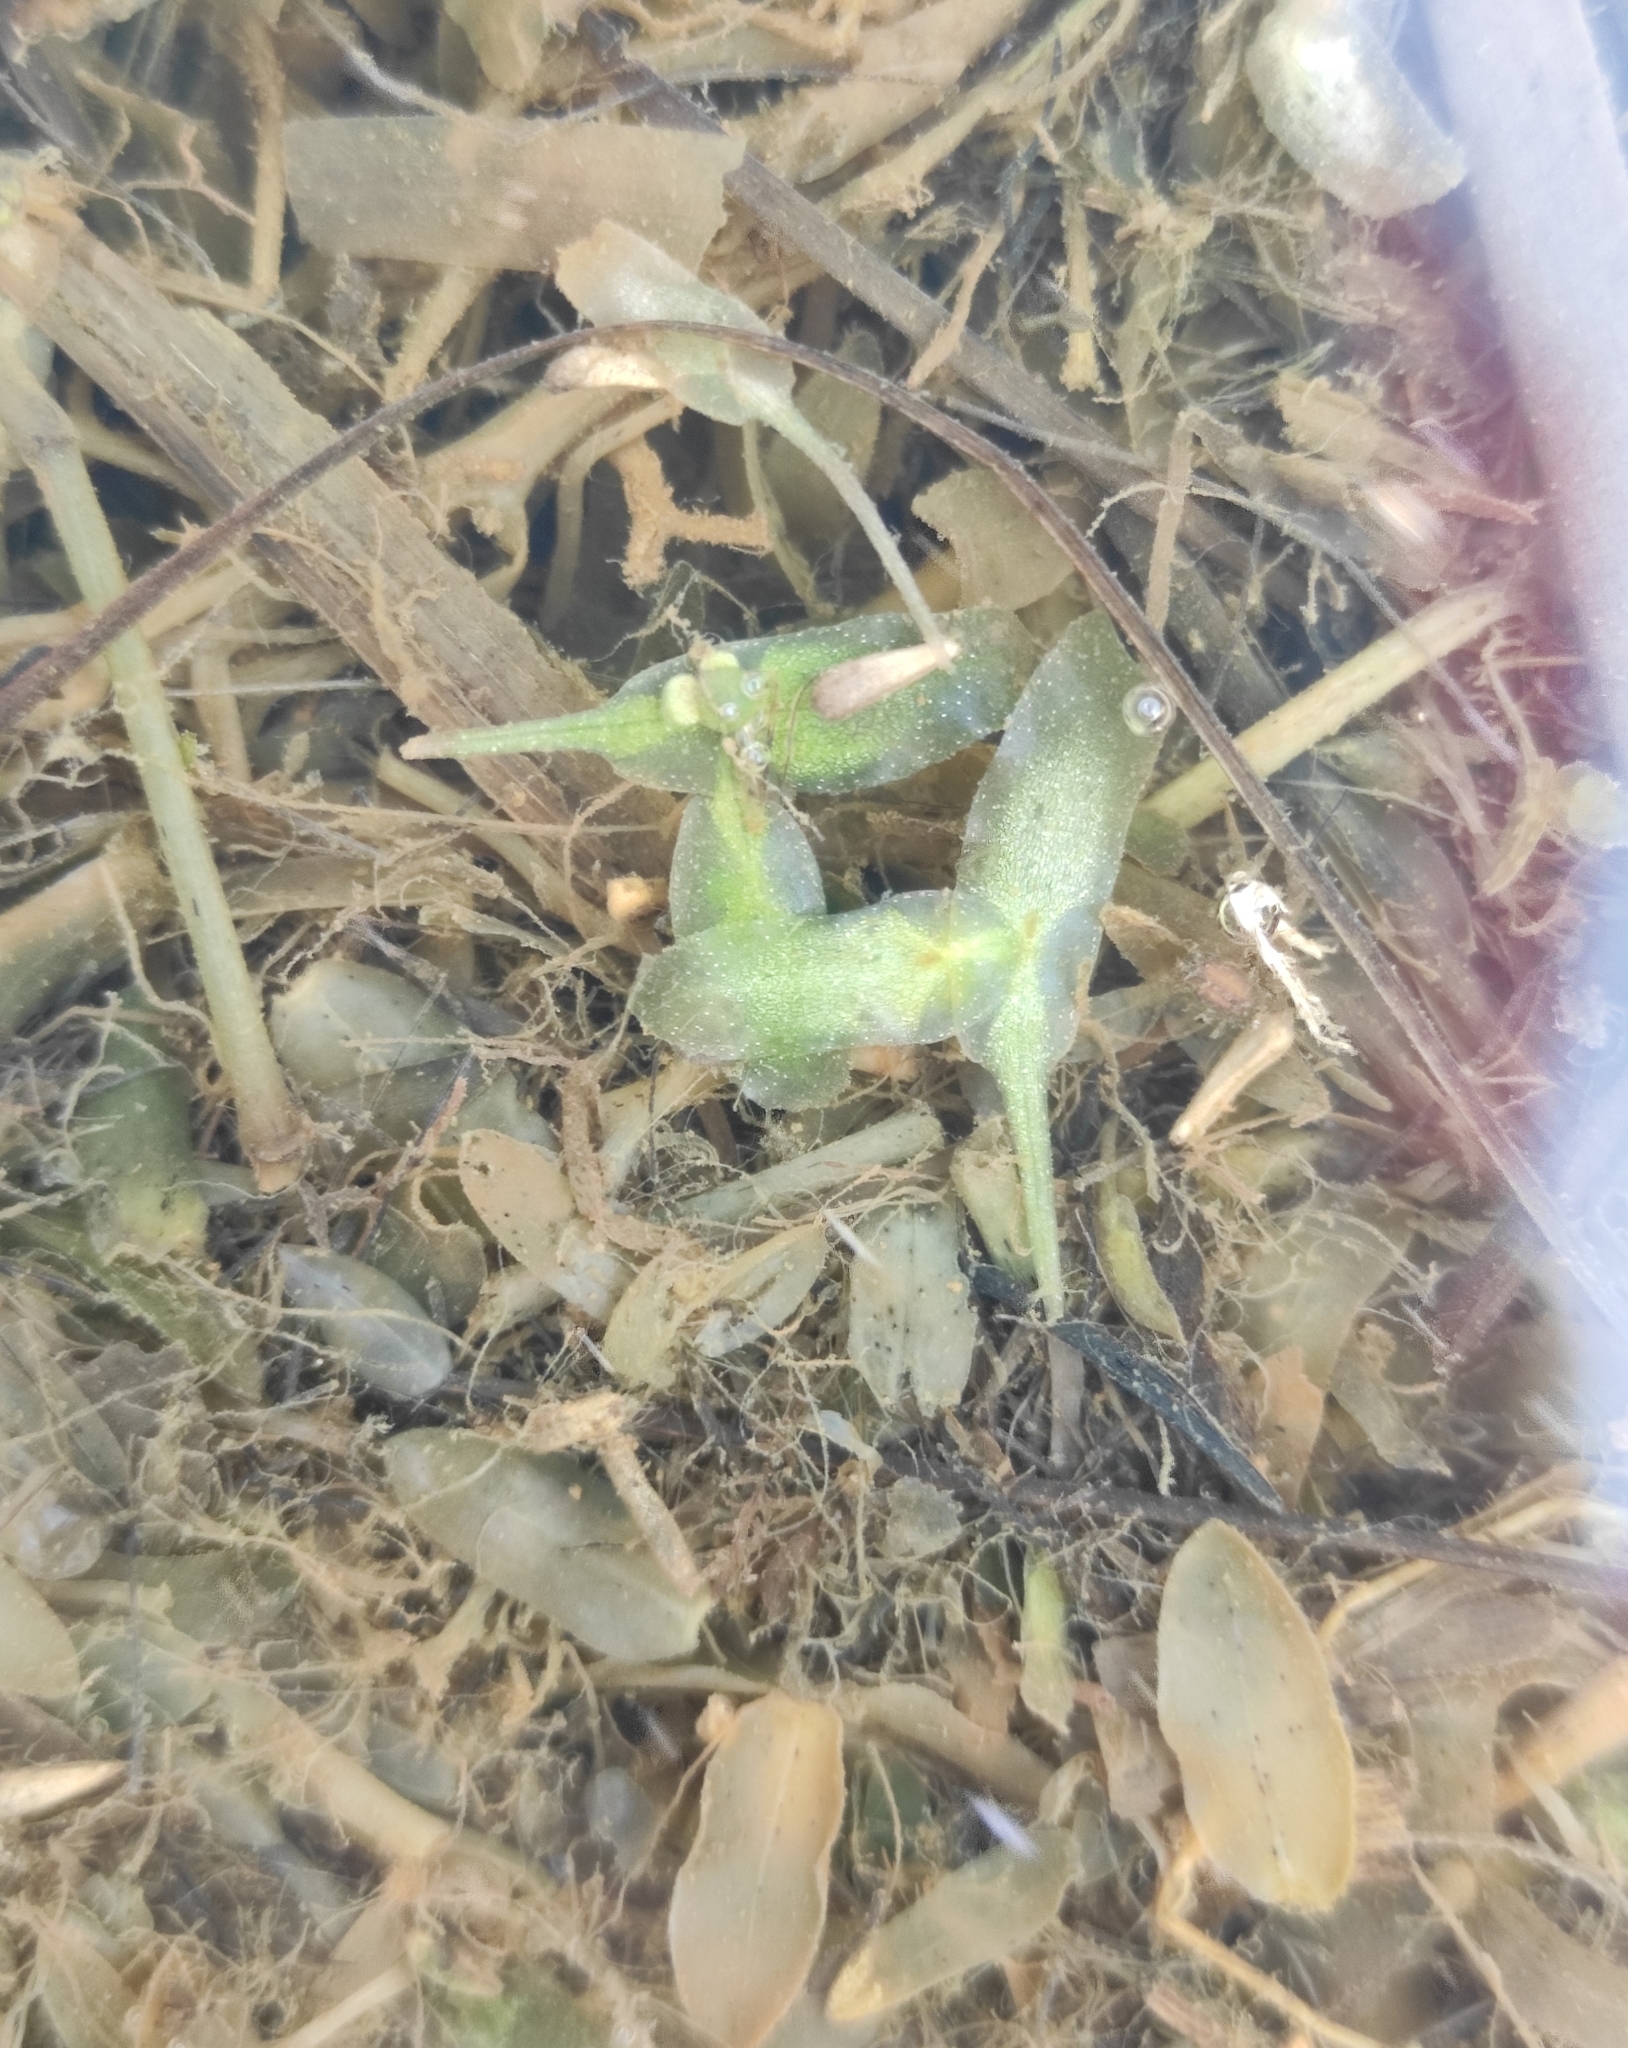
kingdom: Plantae
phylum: Tracheophyta
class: Liliopsida
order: Alismatales
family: Araceae
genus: Lemna
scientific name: Lemna trisulca
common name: Ivy-leaved duckweed
